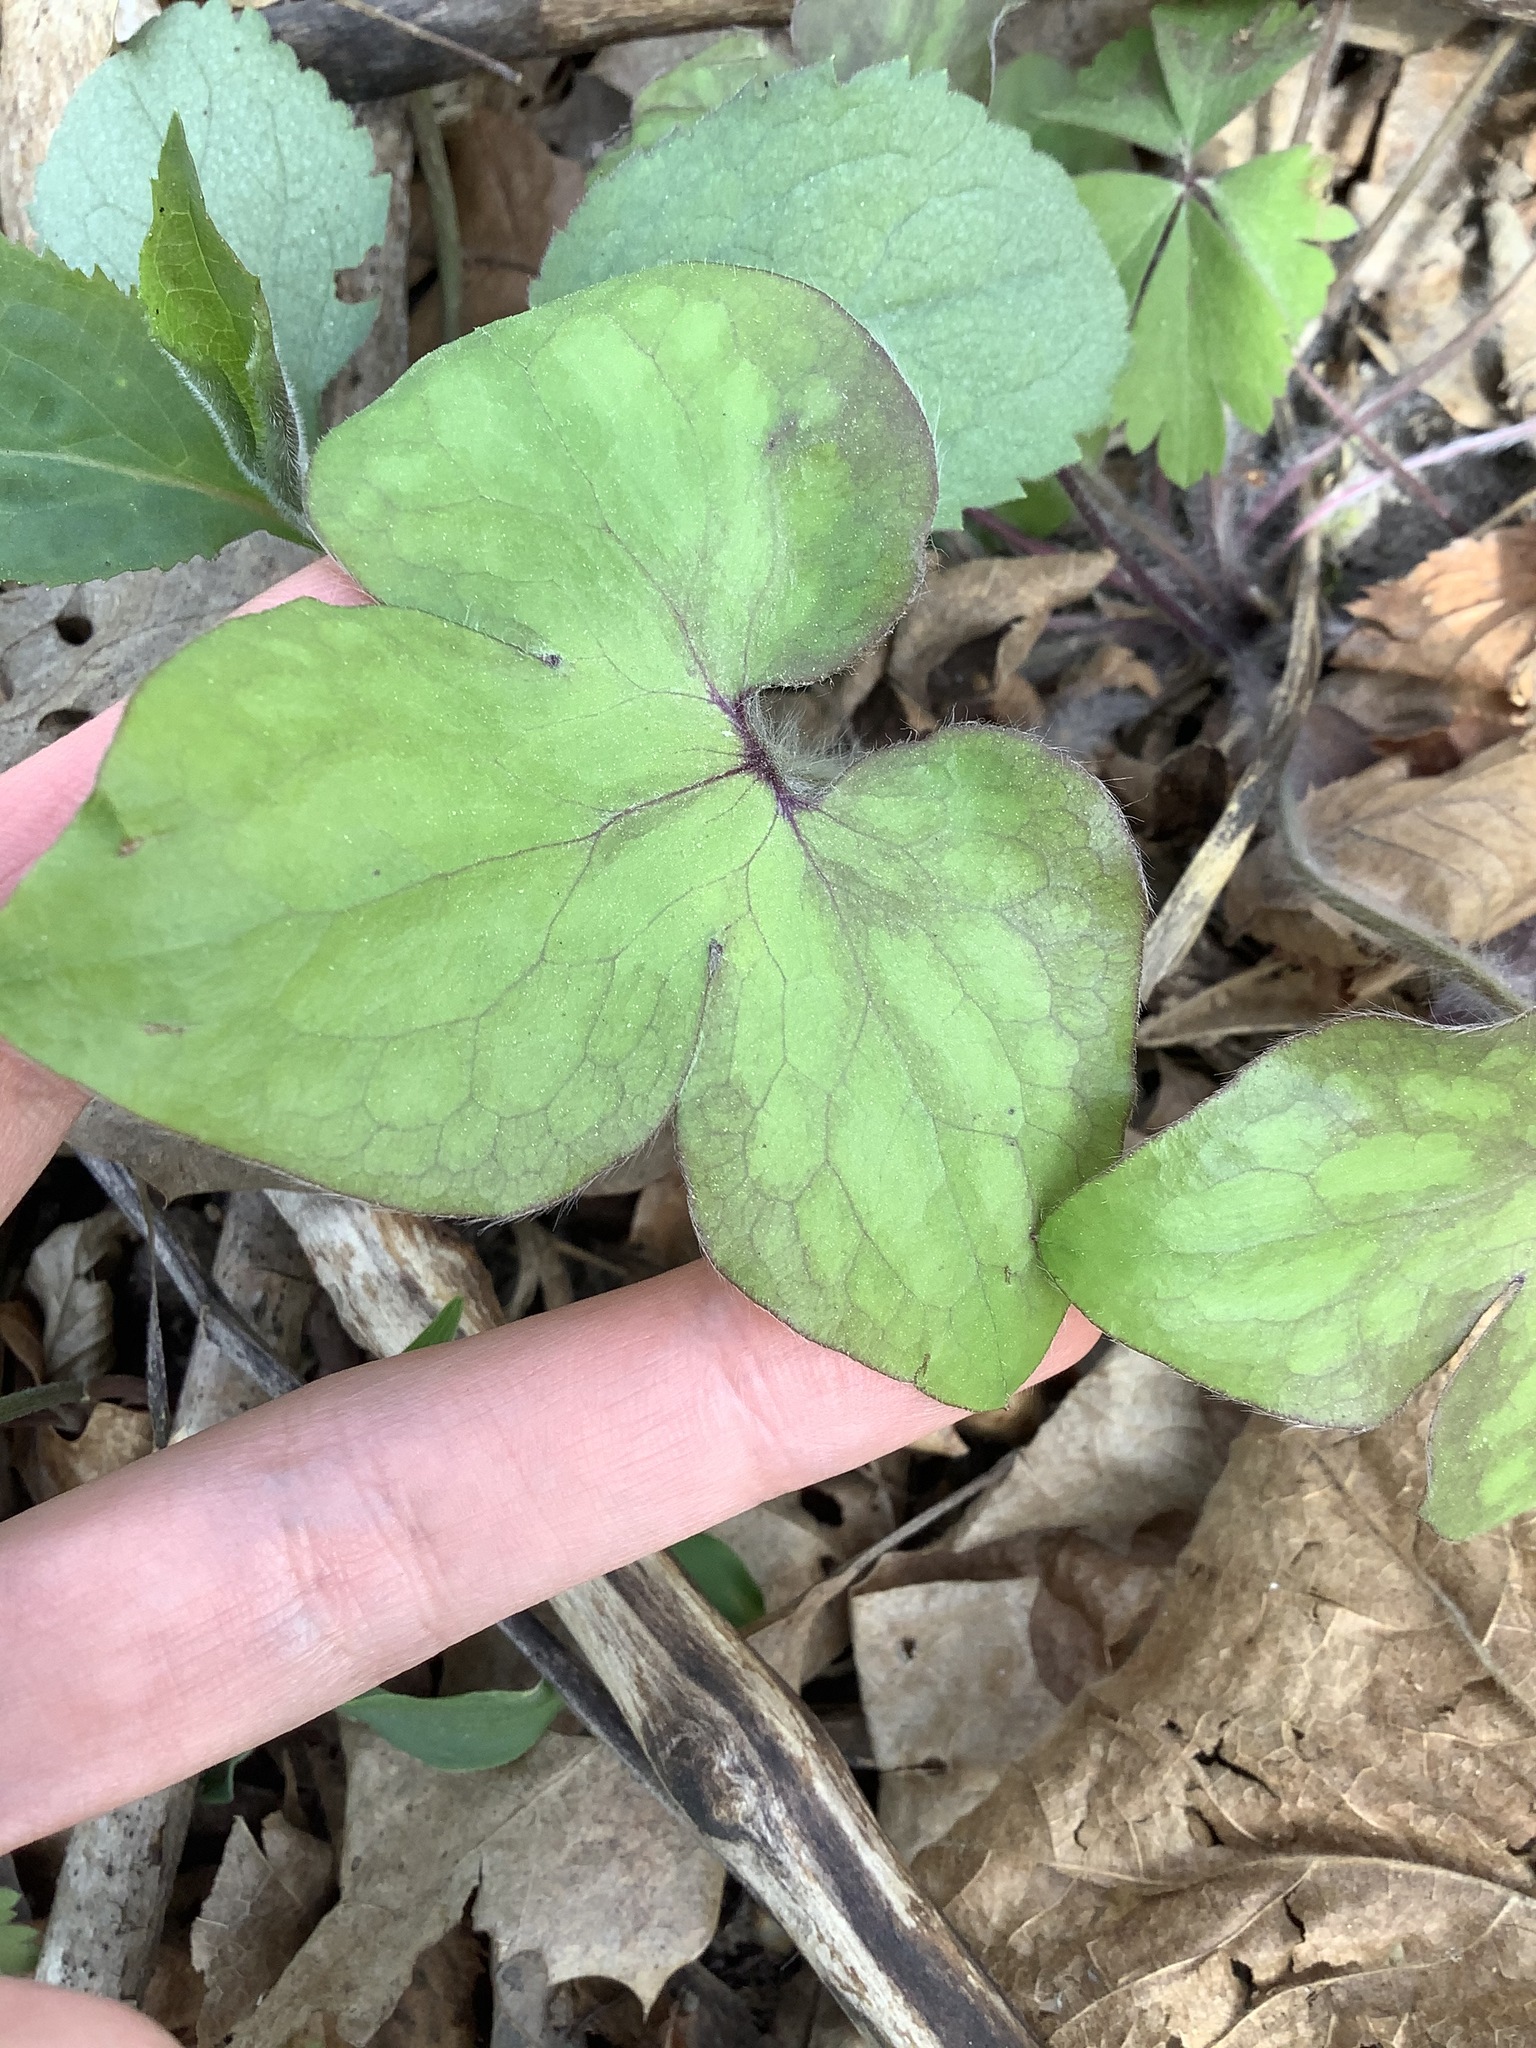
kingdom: Plantae
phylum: Tracheophyta
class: Magnoliopsida
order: Ranunculales
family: Ranunculaceae
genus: Hepatica
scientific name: Hepatica acutiloba
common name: Sharp-lobed hepatica
